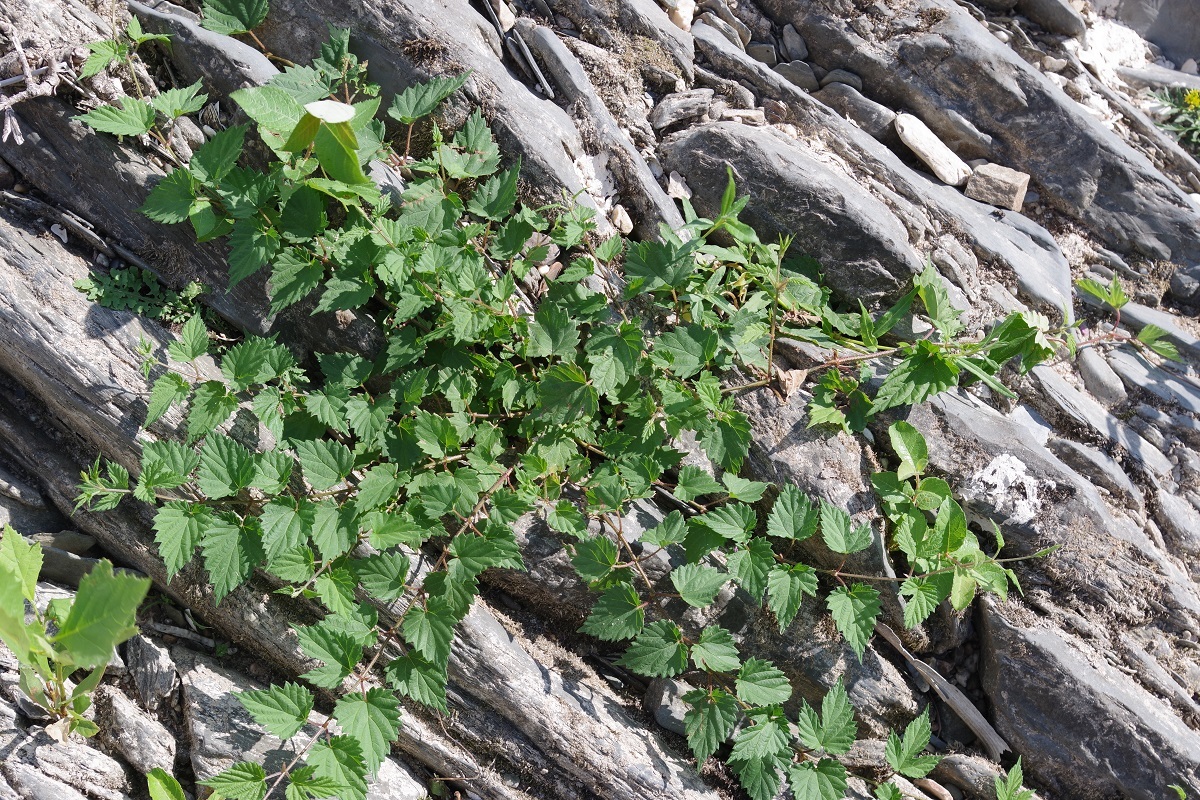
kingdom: Plantae
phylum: Tracheophyta
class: Magnoliopsida
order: Rosales
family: Cannabaceae
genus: Humulus
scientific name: Humulus lupulus
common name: Hop
